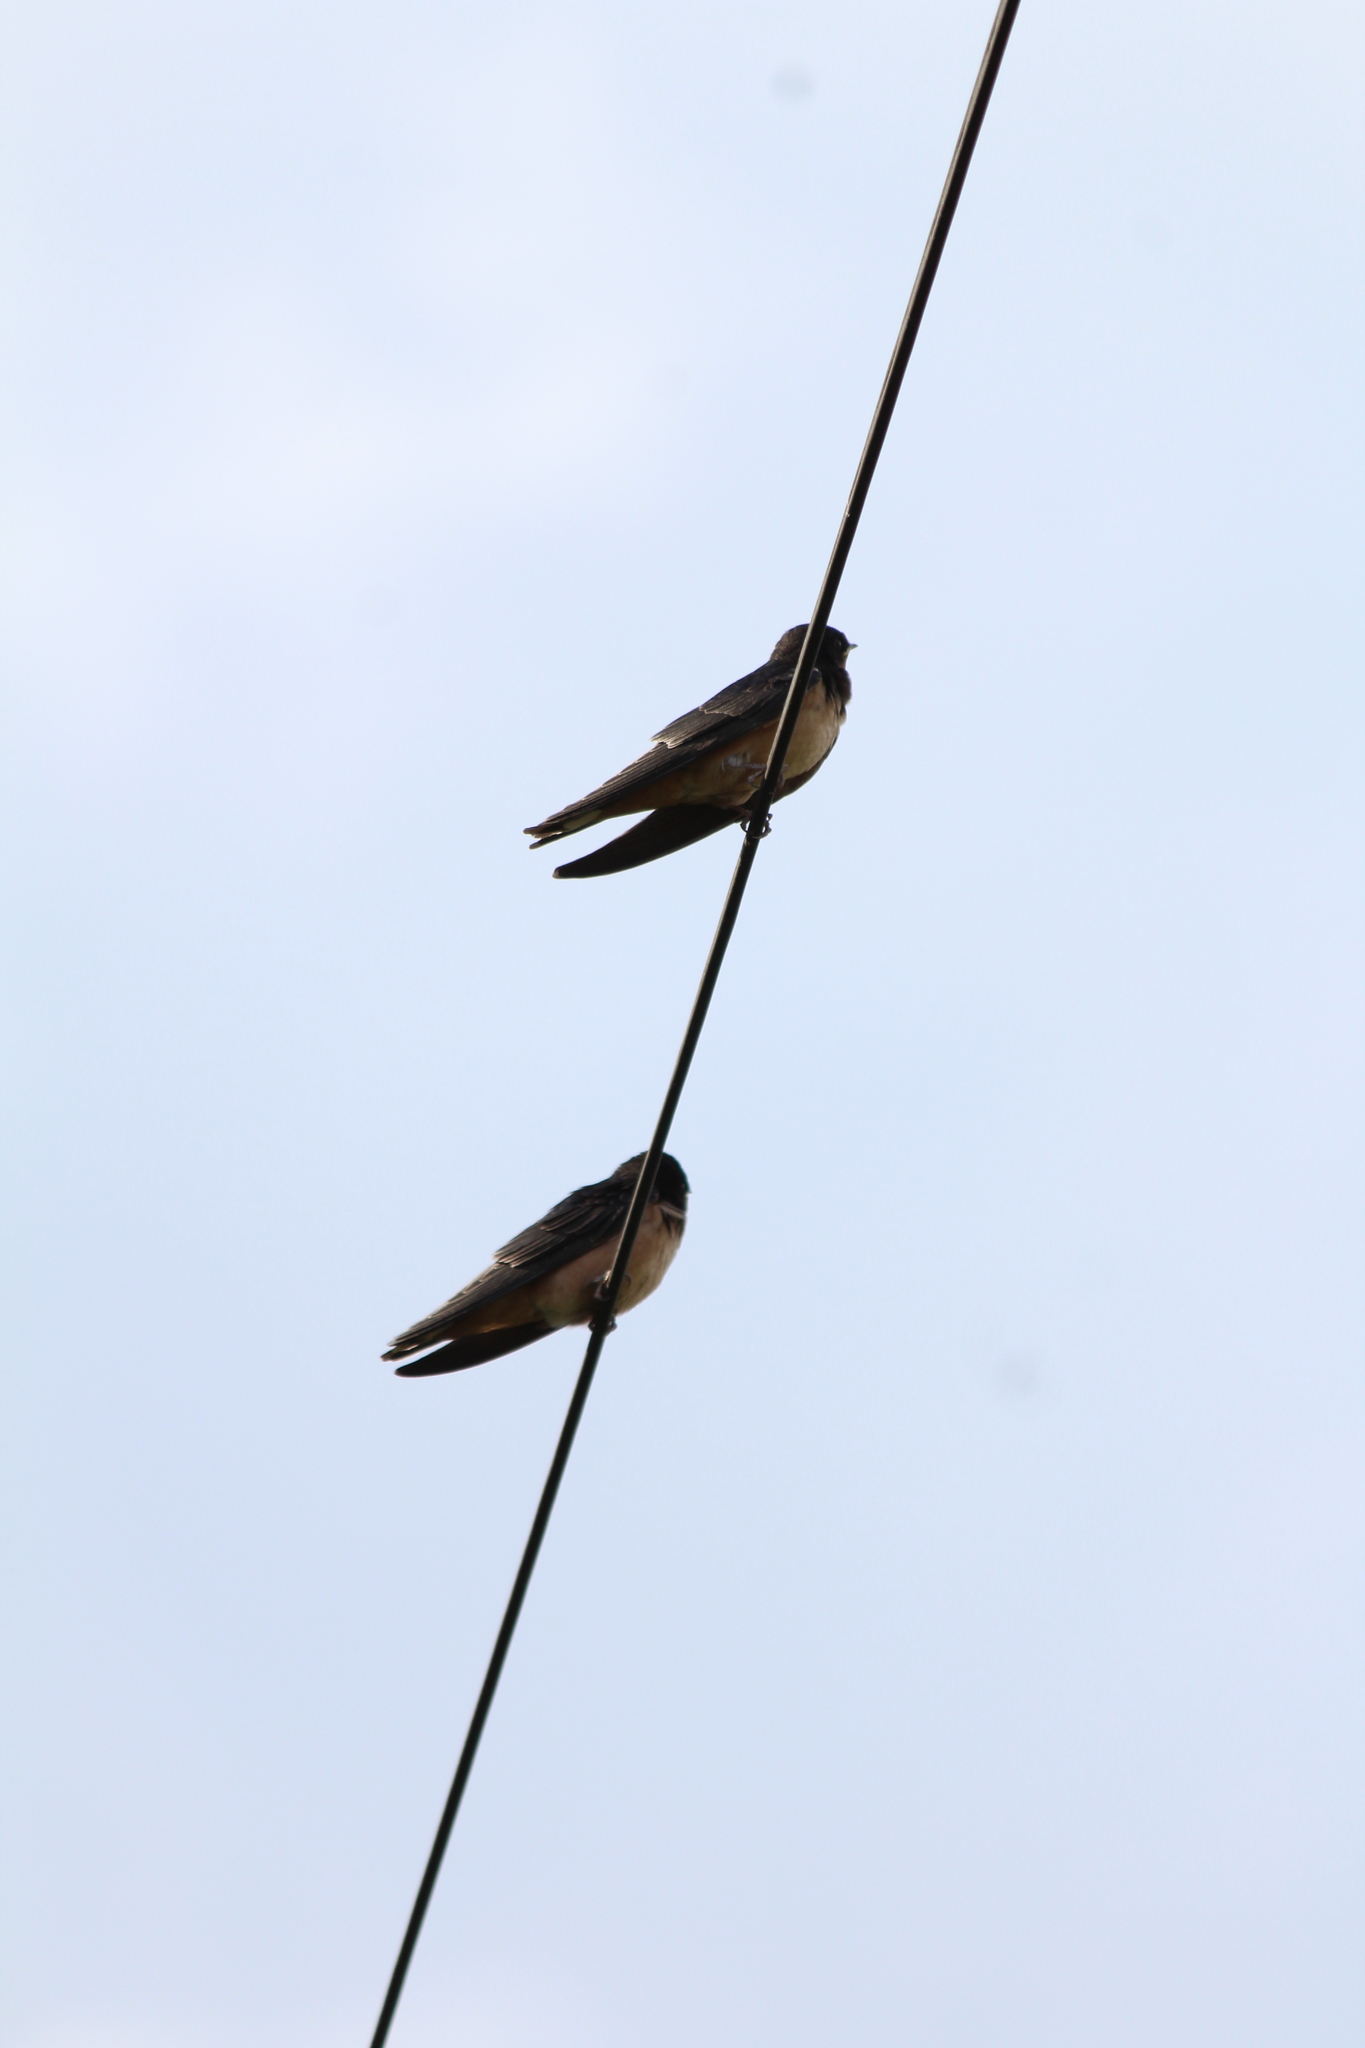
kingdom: Animalia
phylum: Chordata
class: Aves
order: Passeriformes
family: Hirundinidae
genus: Hirundo
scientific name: Hirundo rustica
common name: Barn swallow
